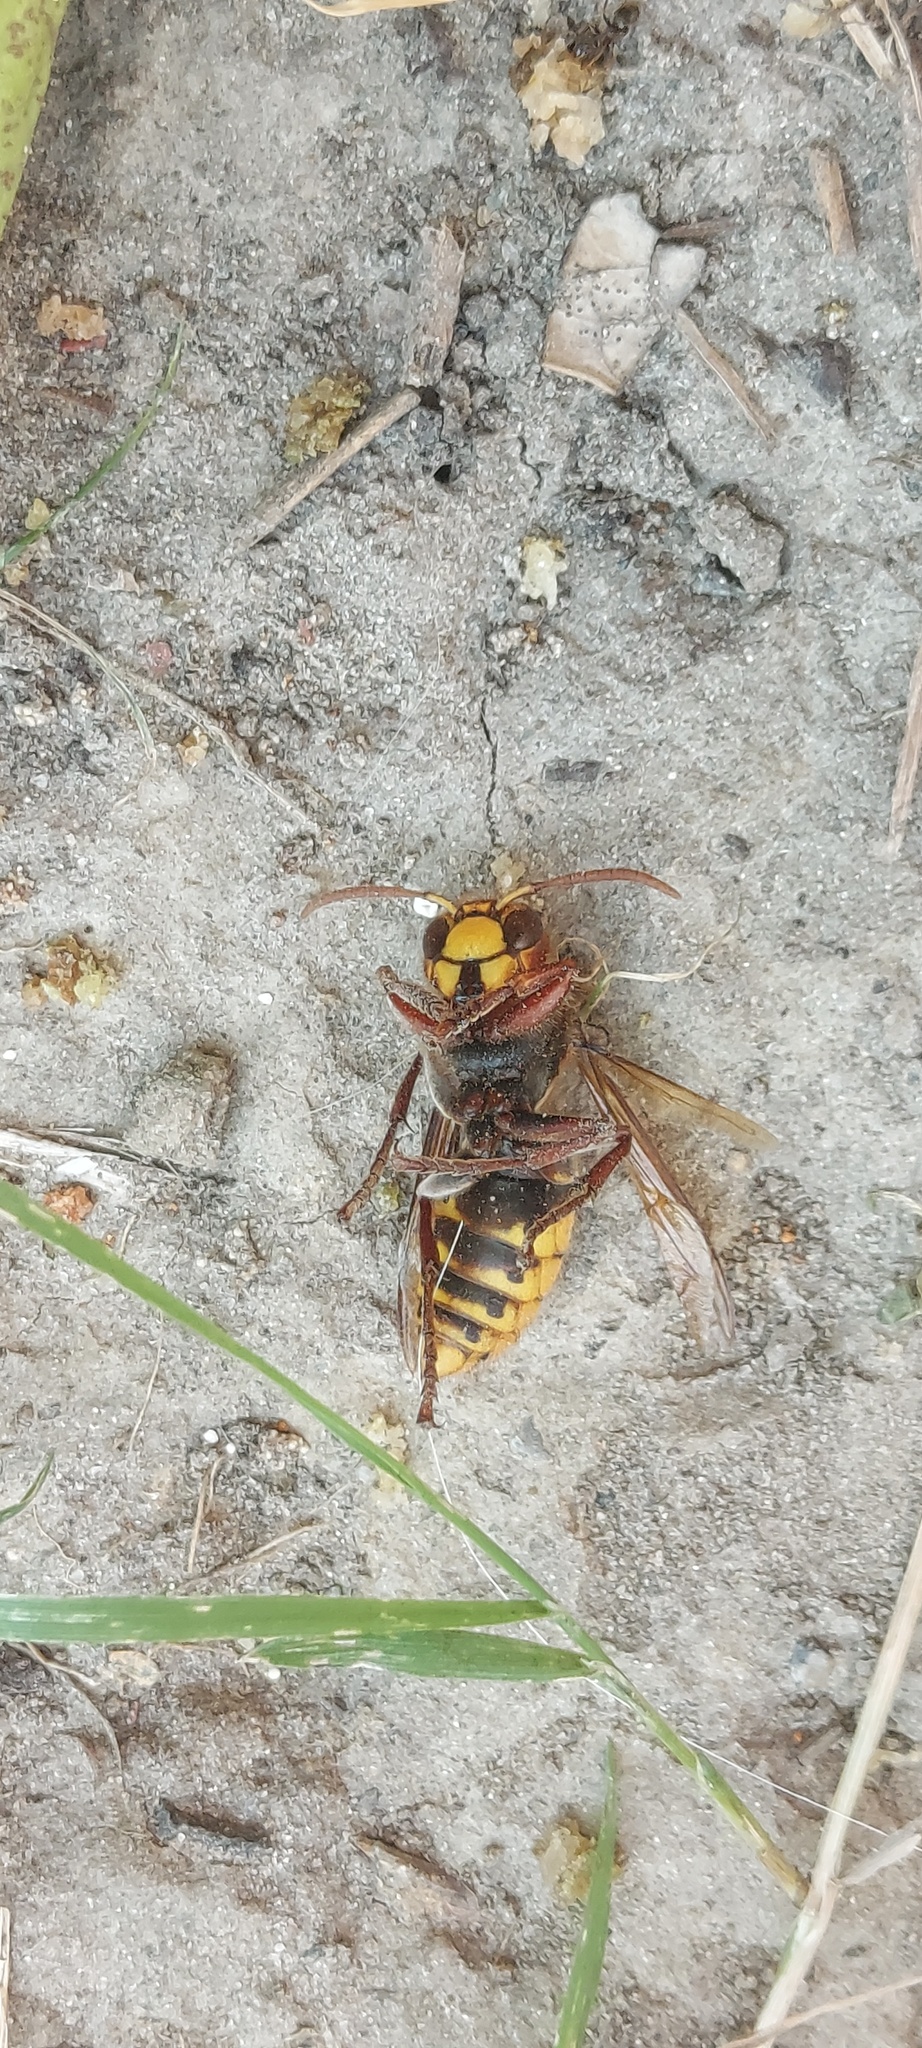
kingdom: Animalia
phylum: Arthropoda
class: Insecta
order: Hymenoptera
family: Vespidae
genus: Vespa
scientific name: Vespa crabro
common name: Hornet
